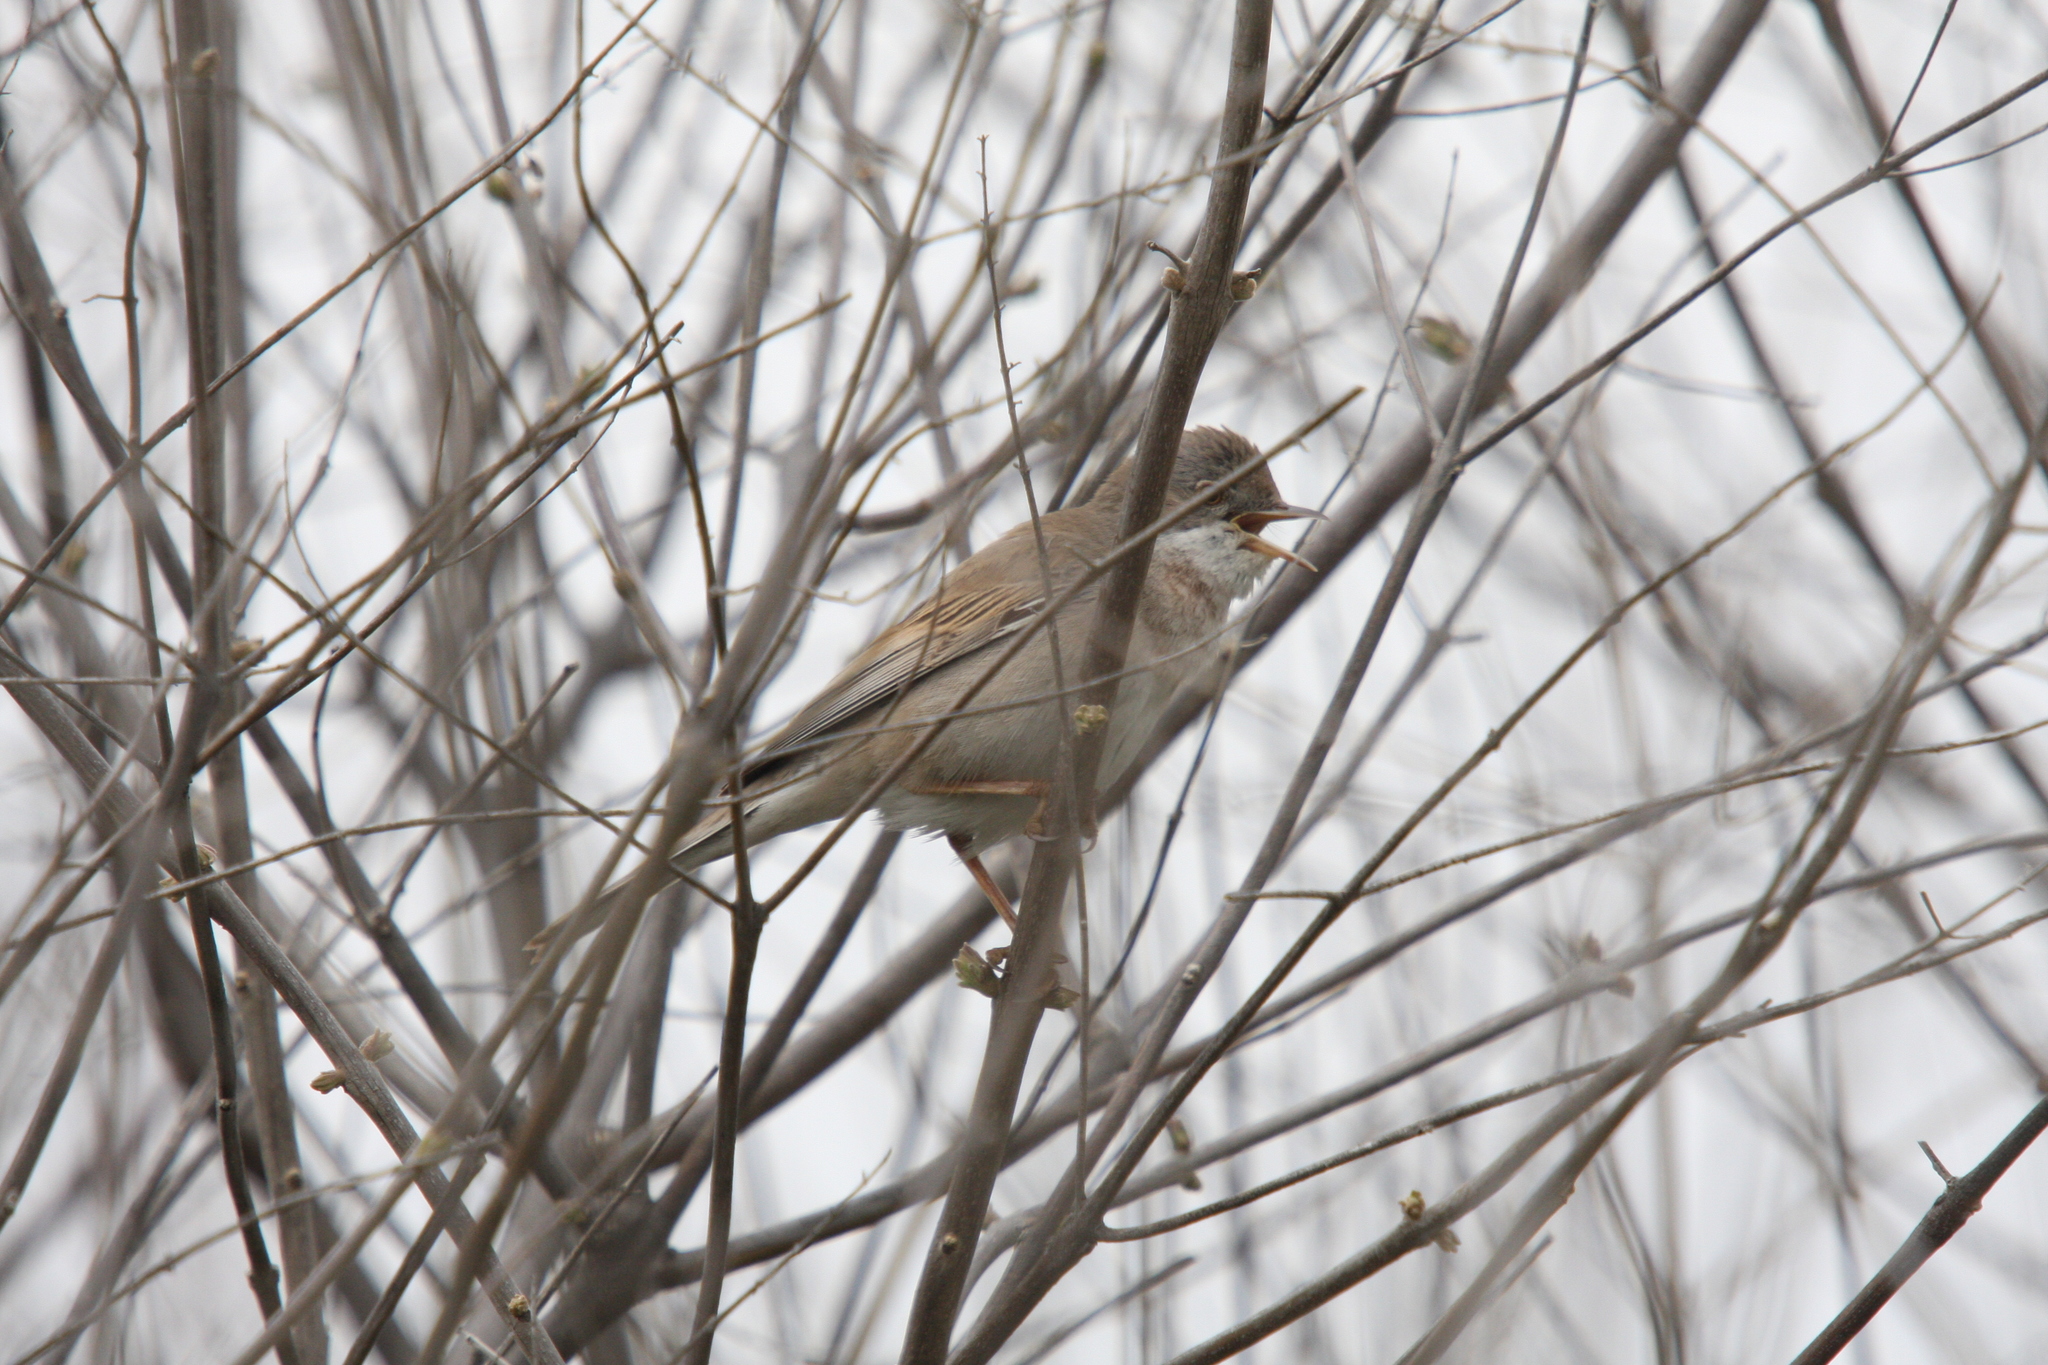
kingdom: Animalia
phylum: Chordata
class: Aves
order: Passeriformes
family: Sylviidae
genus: Sylvia
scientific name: Sylvia communis
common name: Common whitethroat
